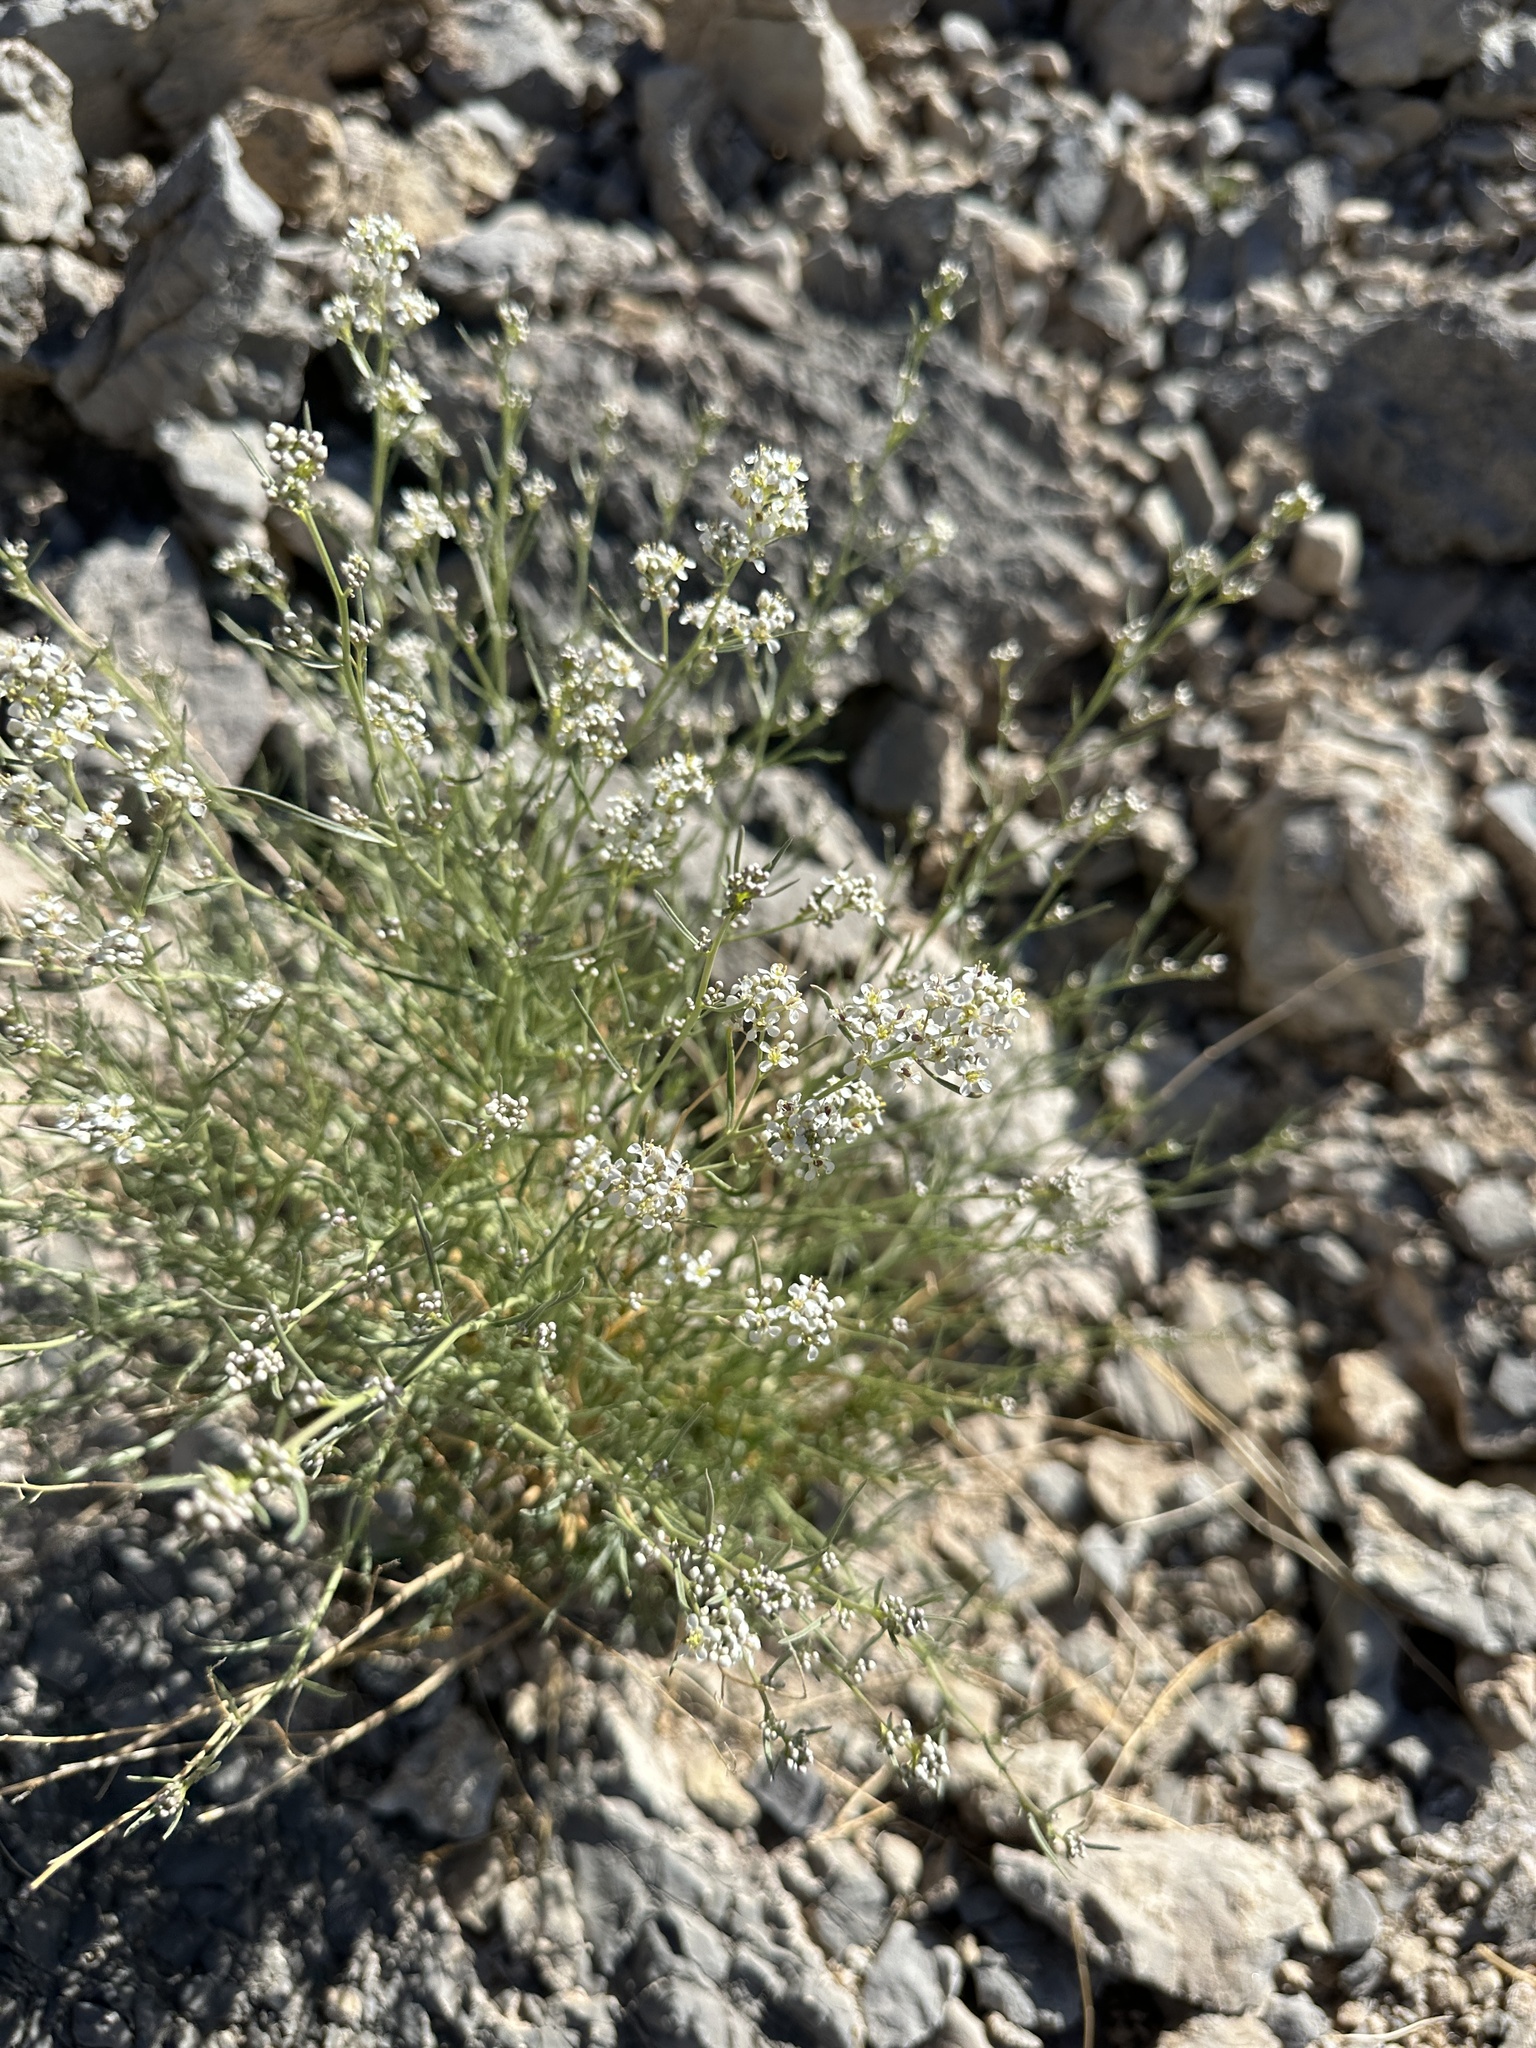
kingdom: Plantae
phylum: Tracheophyta
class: Magnoliopsida
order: Brassicales
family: Brassicaceae
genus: Lepidium
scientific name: Lepidium fremontii
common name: Fremont's pepperwort
